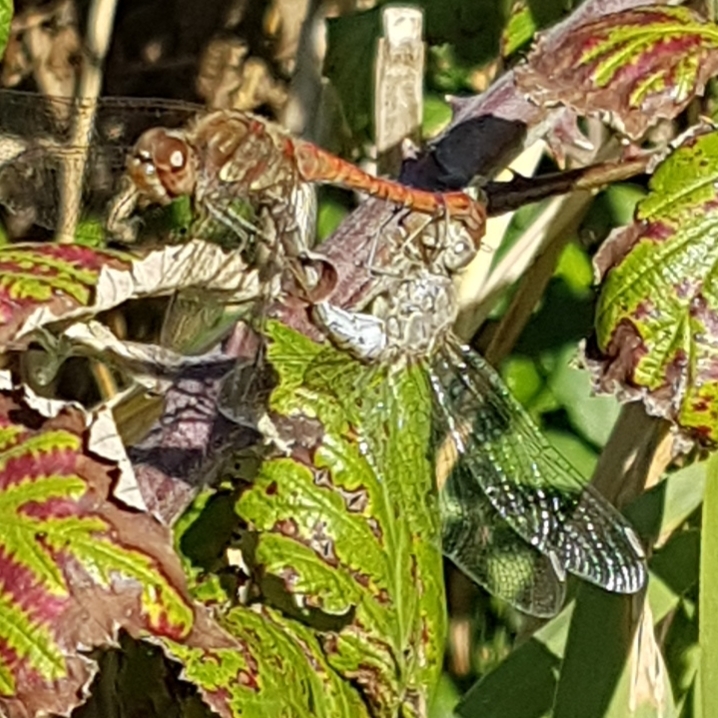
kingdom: Animalia
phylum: Arthropoda
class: Insecta
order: Odonata
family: Libellulidae
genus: Sympetrum
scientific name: Sympetrum striolatum
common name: Common darter
